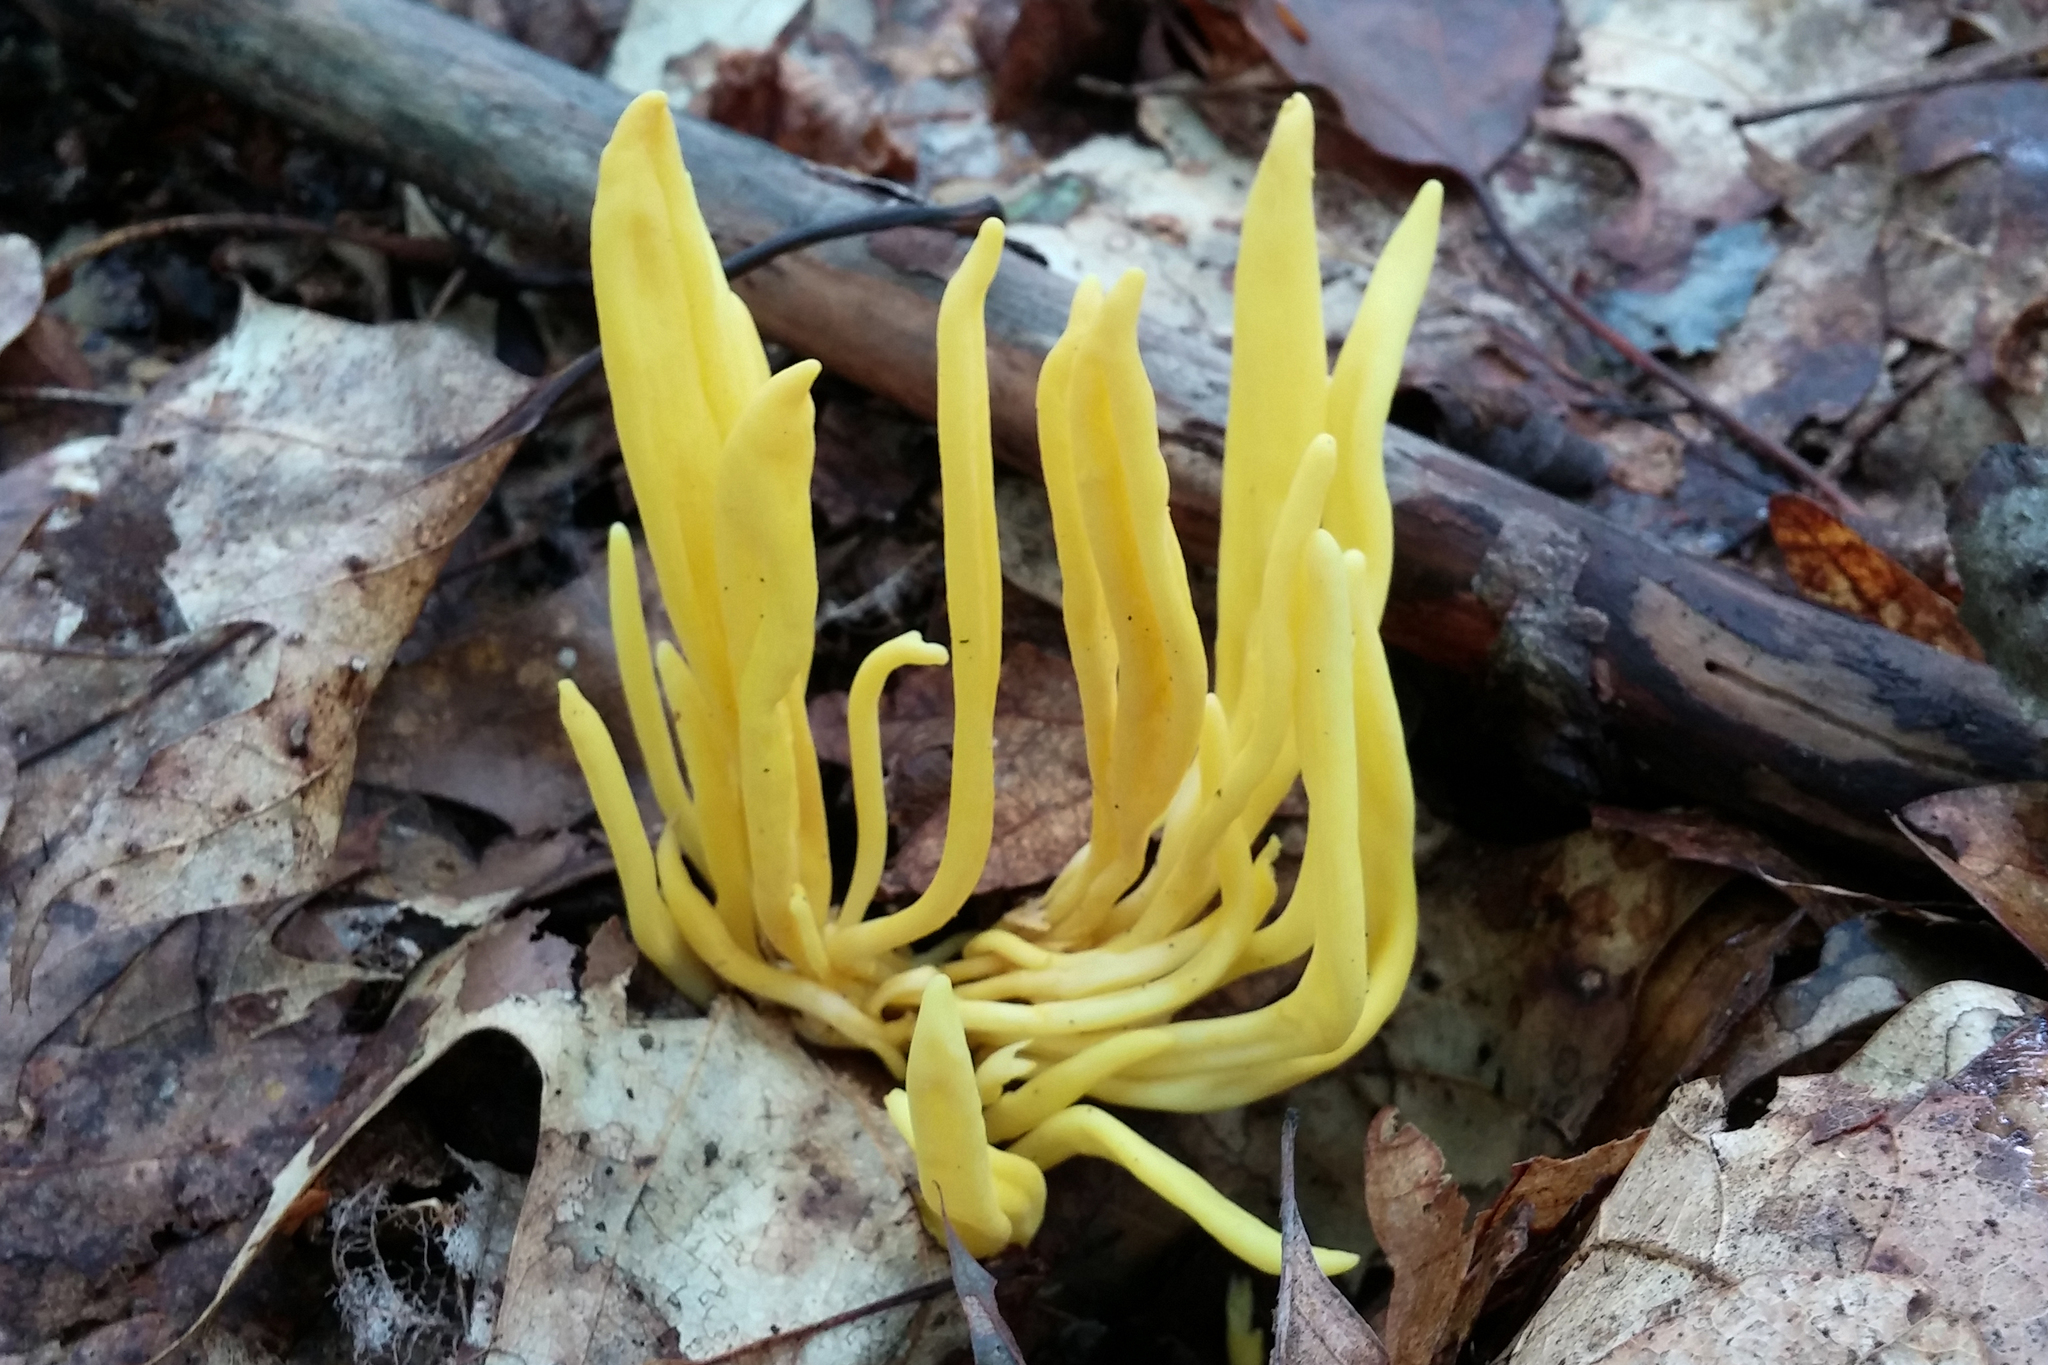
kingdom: Fungi
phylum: Basidiomycota
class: Agaricomycetes
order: Agaricales
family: Clavariaceae
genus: Clavulinopsis
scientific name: Clavulinopsis fusiformis
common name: Golden spindles
